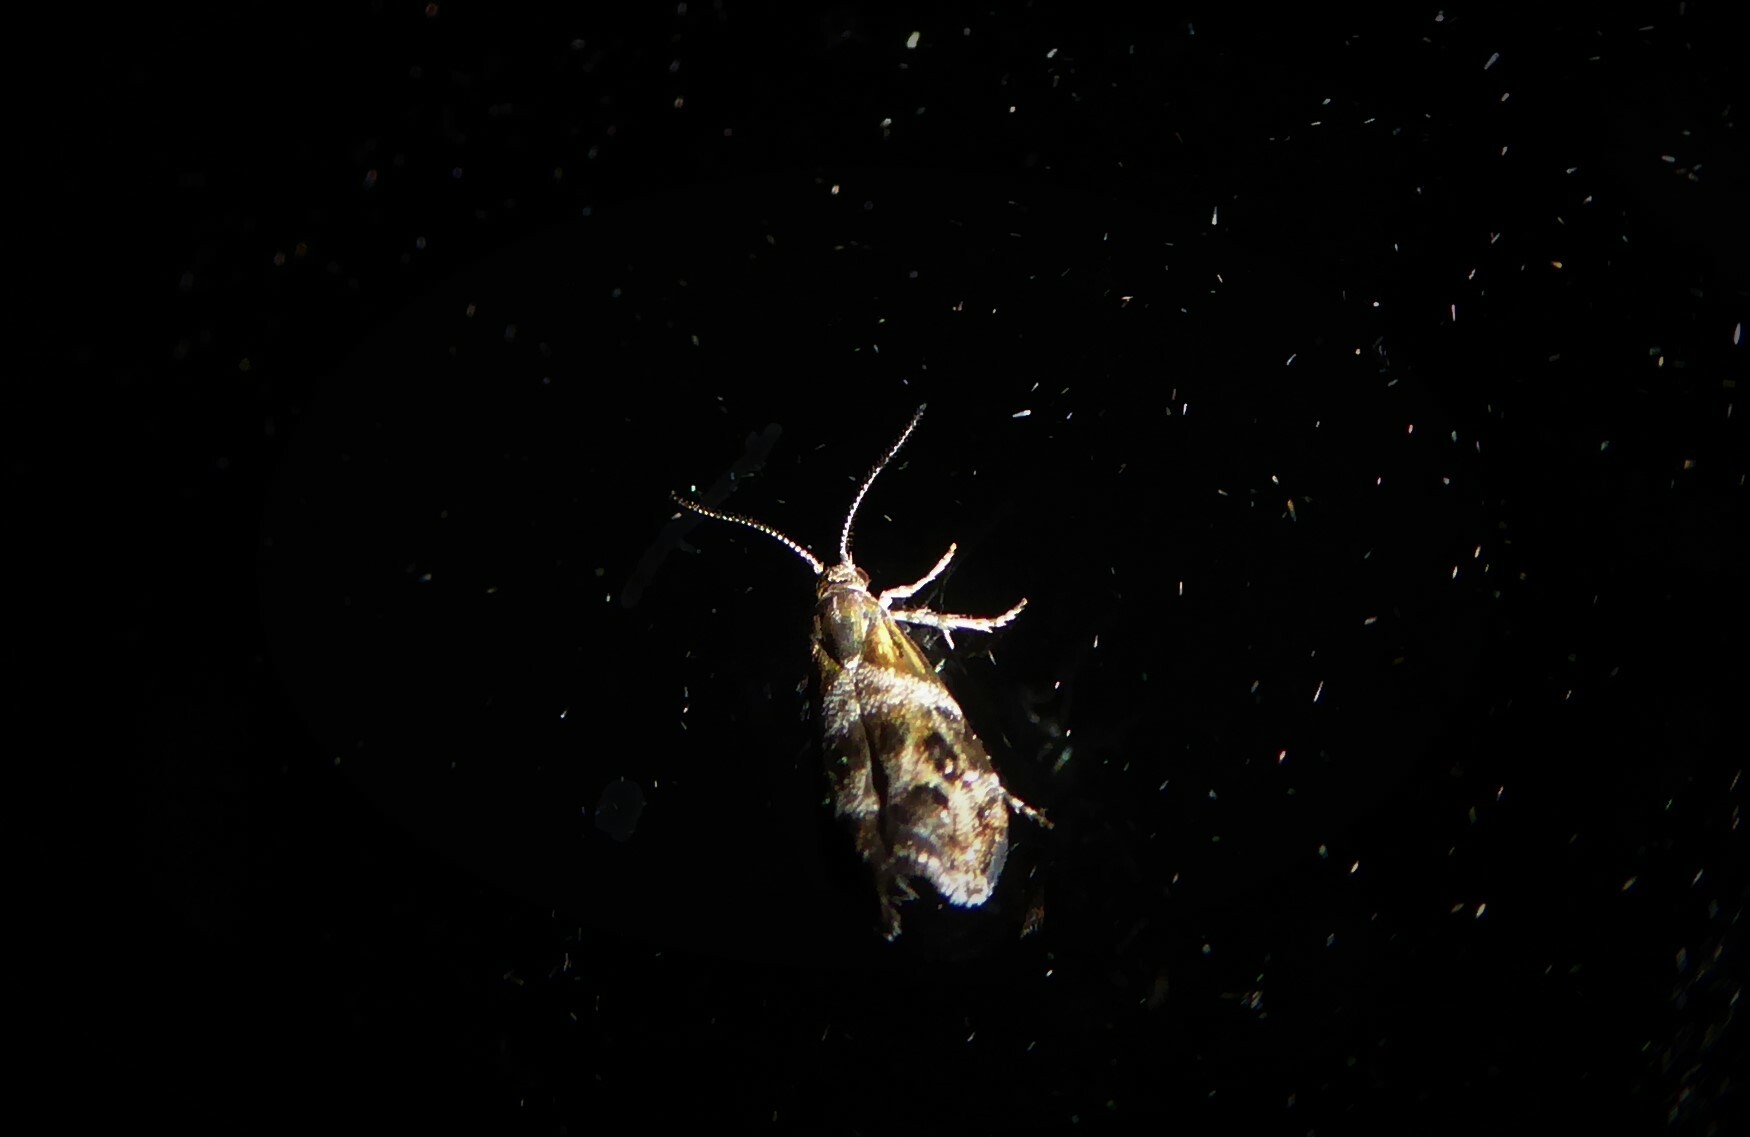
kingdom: Animalia
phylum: Arthropoda
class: Insecta
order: Lepidoptera
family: Choreutidae
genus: Tebenna
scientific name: Tebenna micalis
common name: Vagrant twitcher
